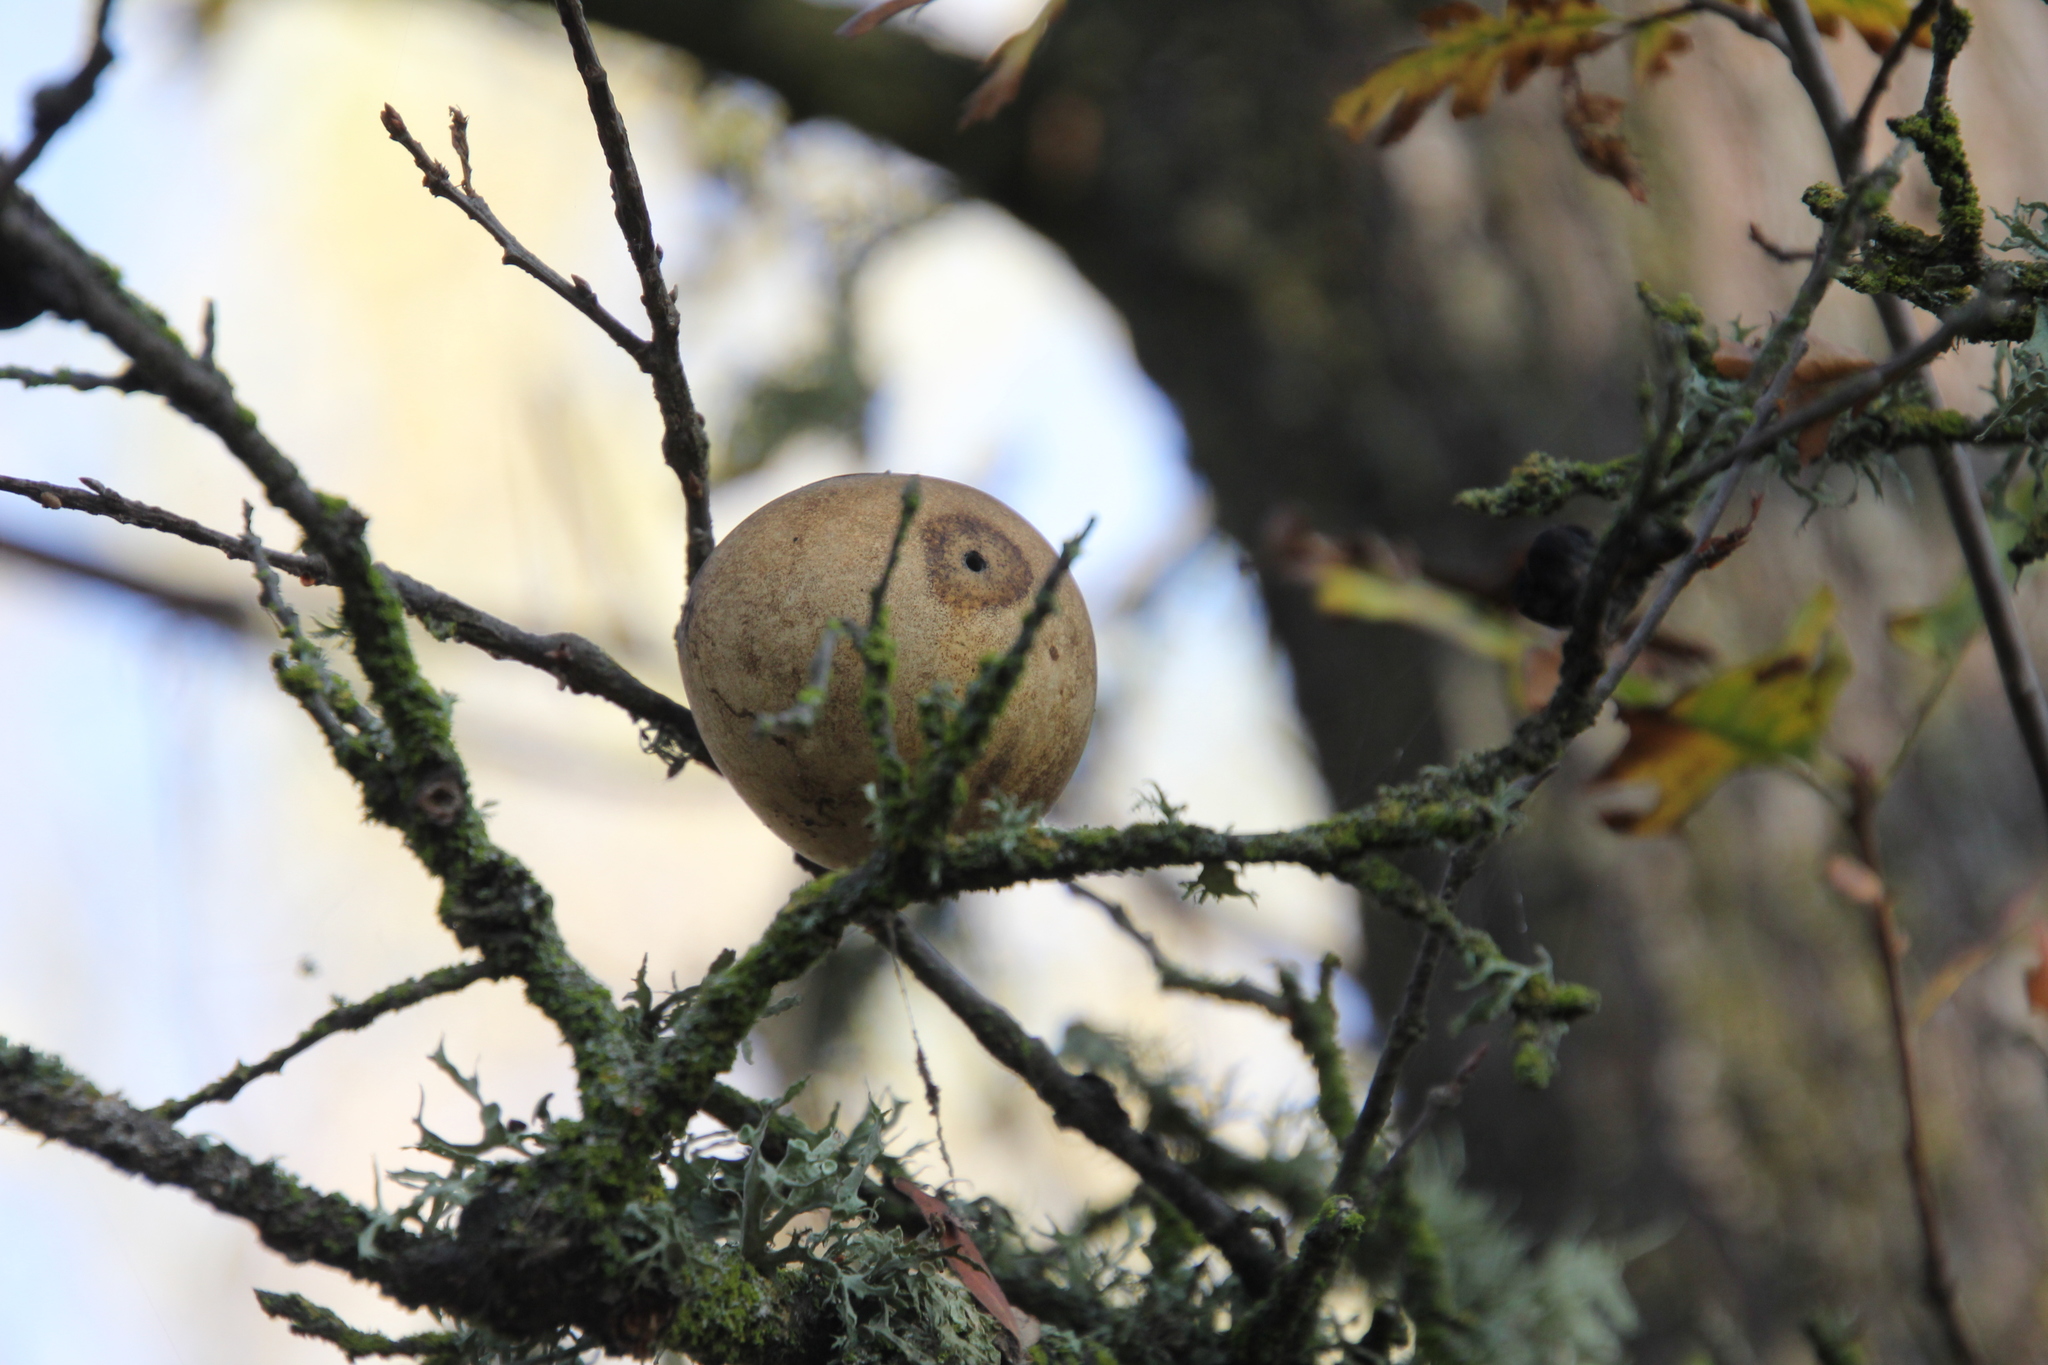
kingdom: Animalia
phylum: Arthropoda
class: Insecta
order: Hymenoptera
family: Cynipidae
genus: Andricus
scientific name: Andricus quercuscalifornicus
